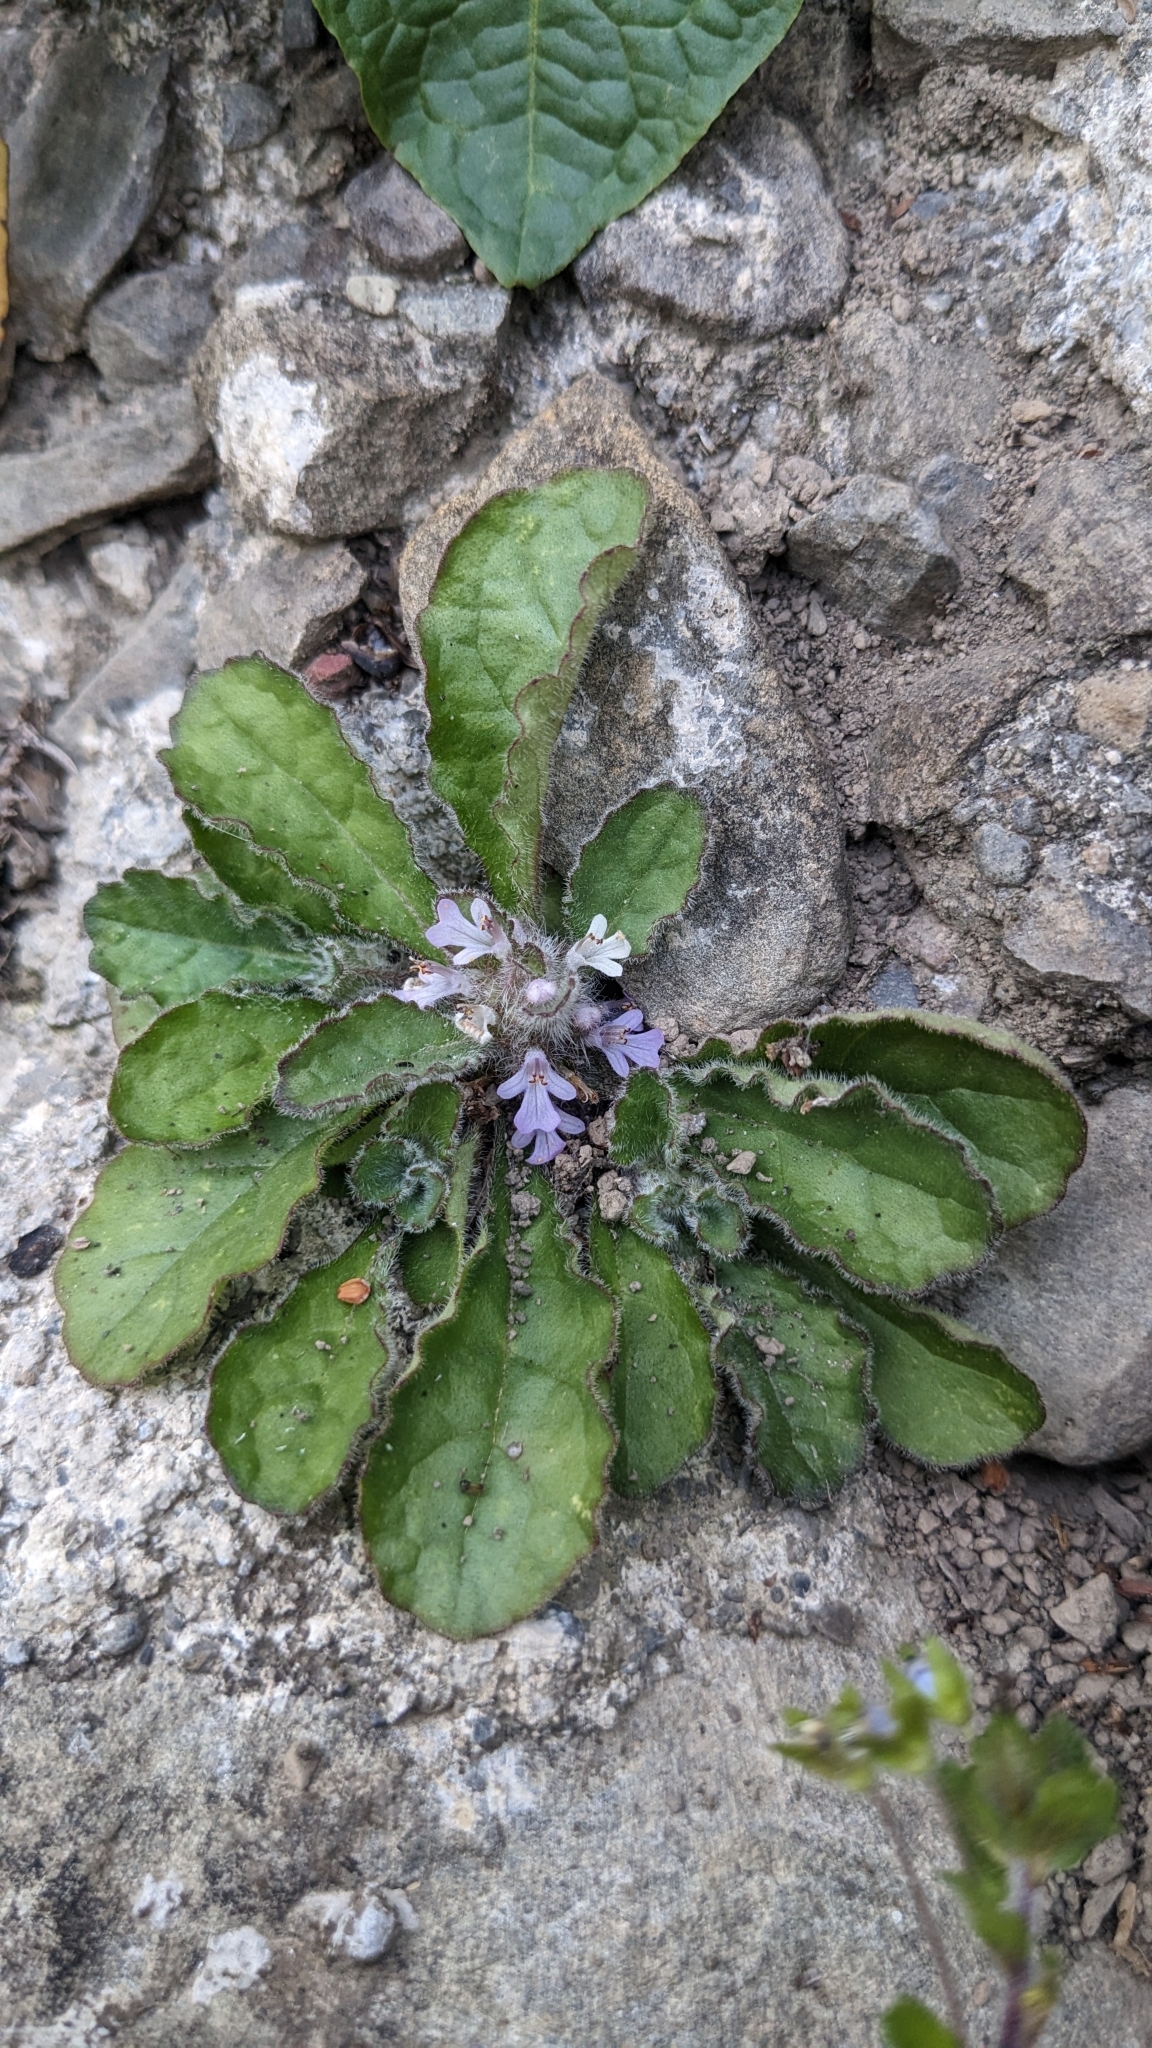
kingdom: Plantae
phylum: Tracheophyta
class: Magnoliopsida
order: Lamiales
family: Lamiaceae
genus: Ajuga
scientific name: Ajuga taiwanensis
